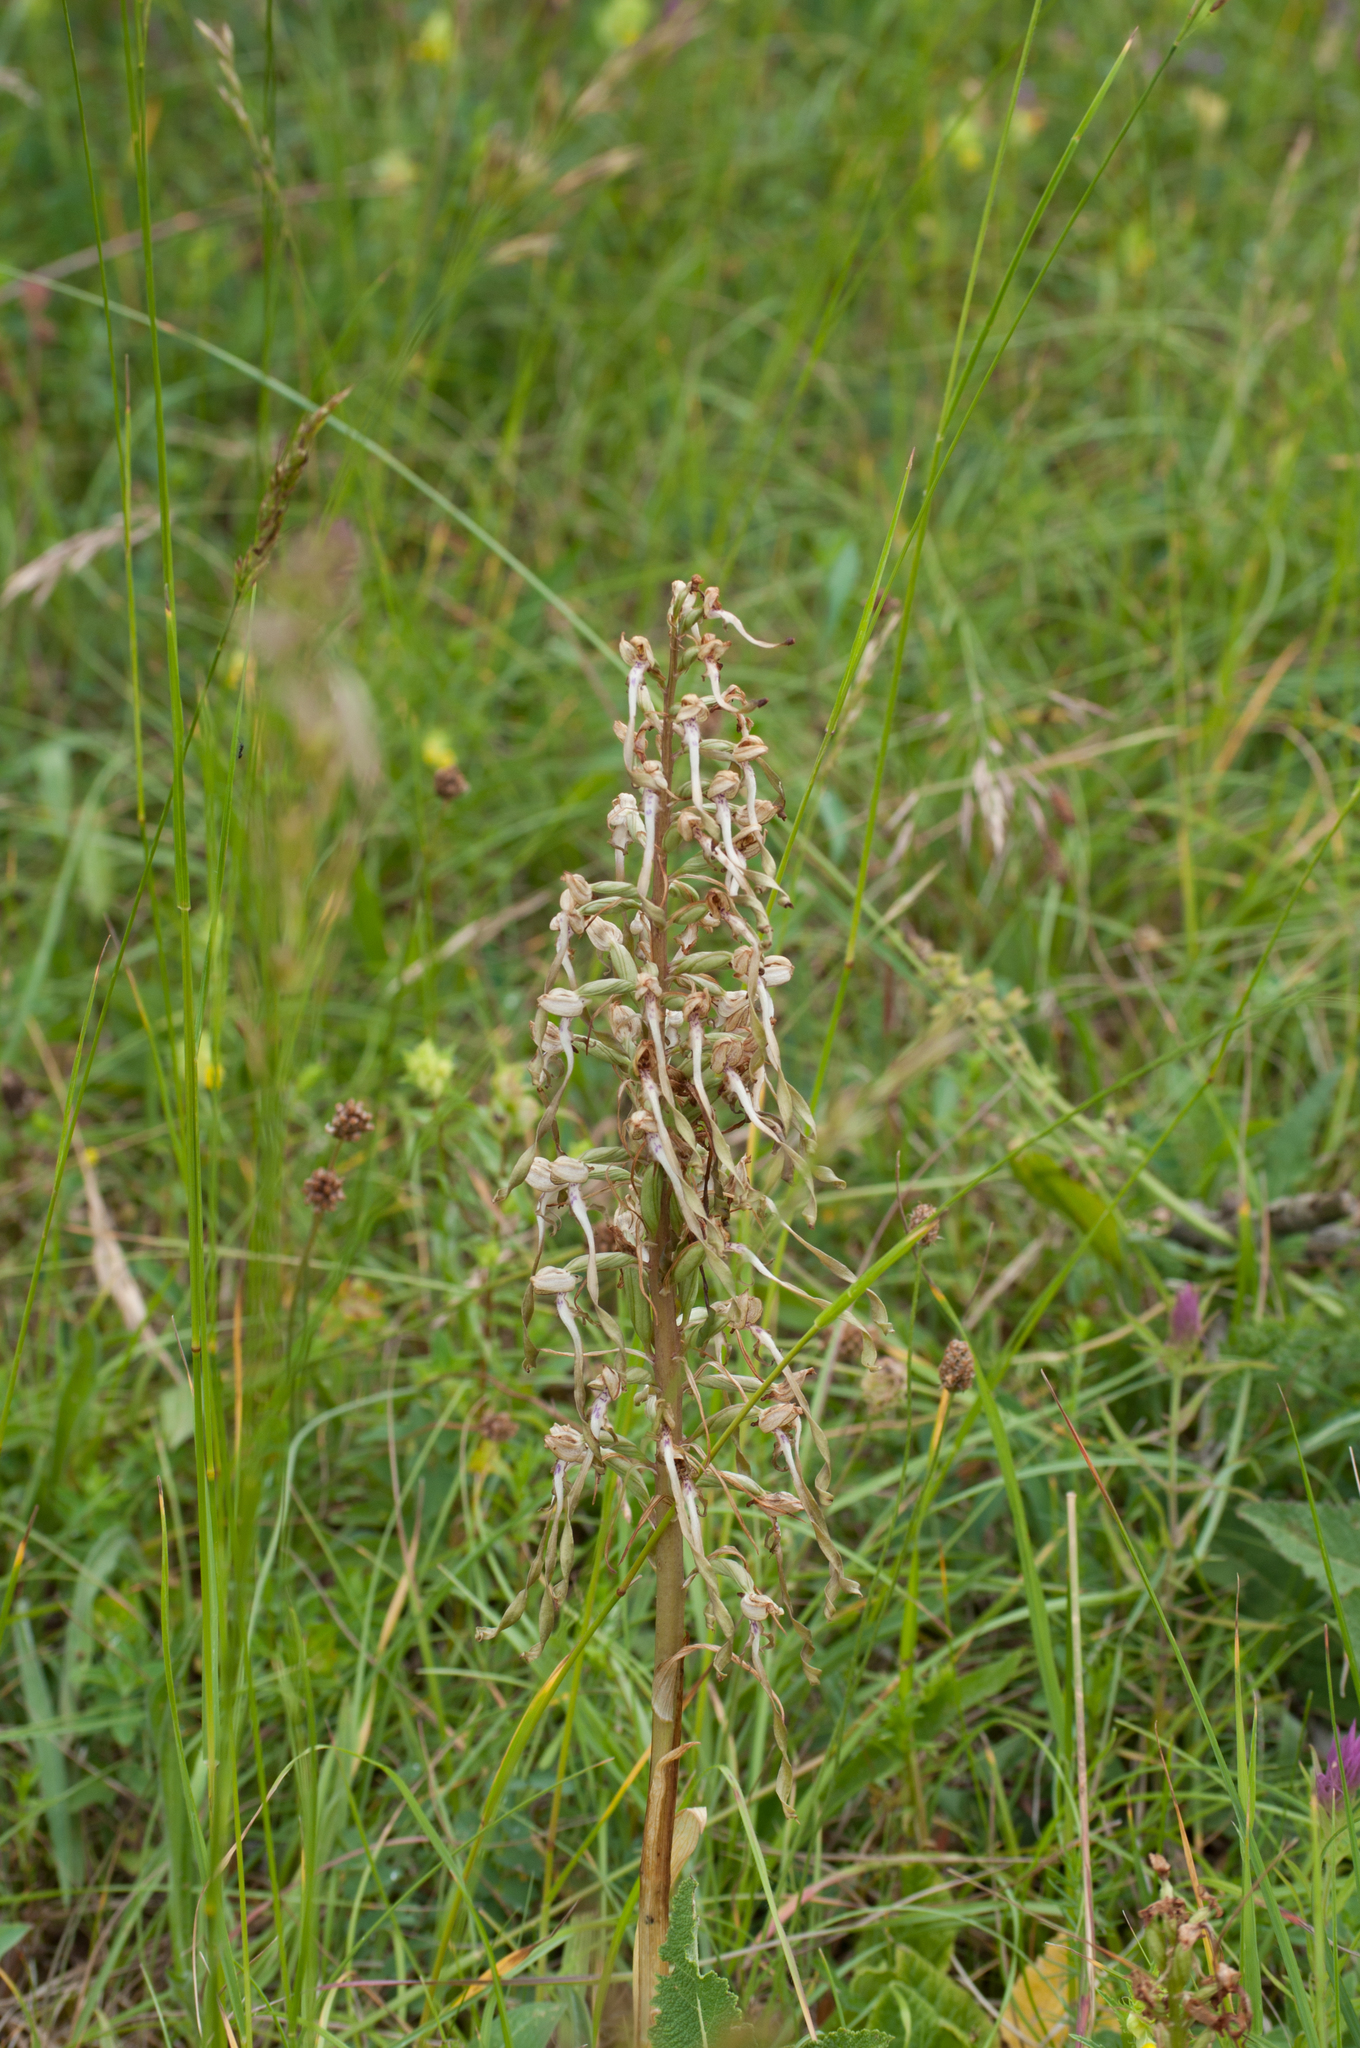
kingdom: Plantae
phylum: Tracheophyta
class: Liliopsida
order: Asparagales
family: Orchidaceae
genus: Himantoglossum
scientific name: Himantoglossum hircinum
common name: Lizard orchid
